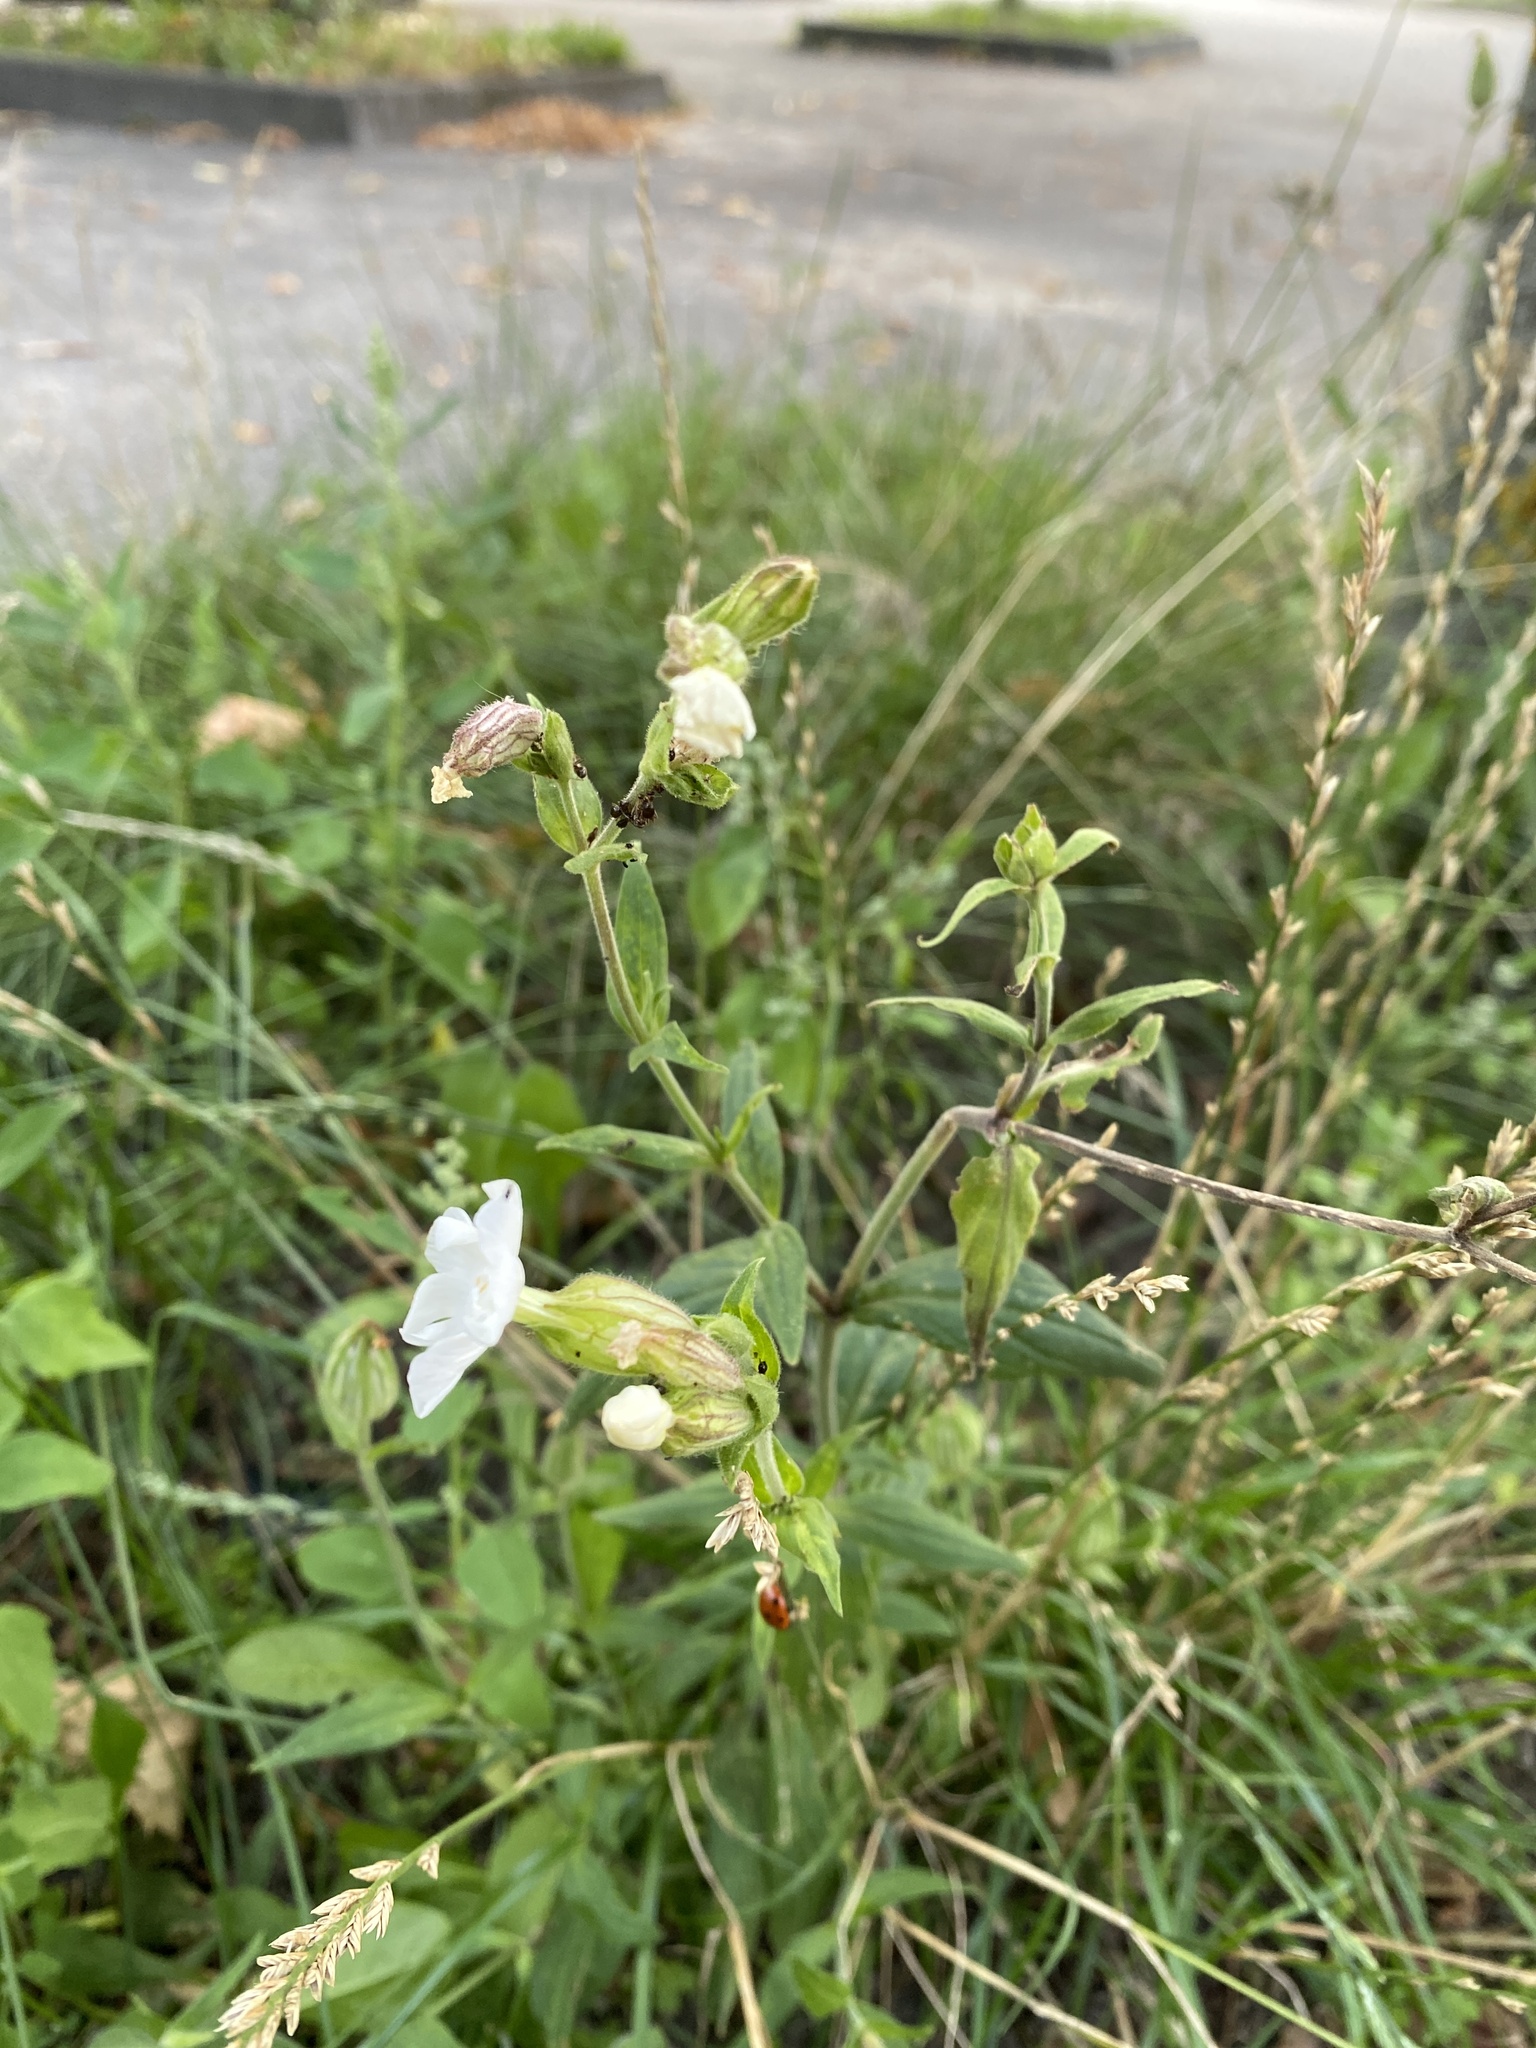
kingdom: Plantae
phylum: Tracheophyta
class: Magnoliopsida
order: Caryophyllales
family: Caryophyllaceae
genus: Silene
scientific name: Silene latifolia
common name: White campion
